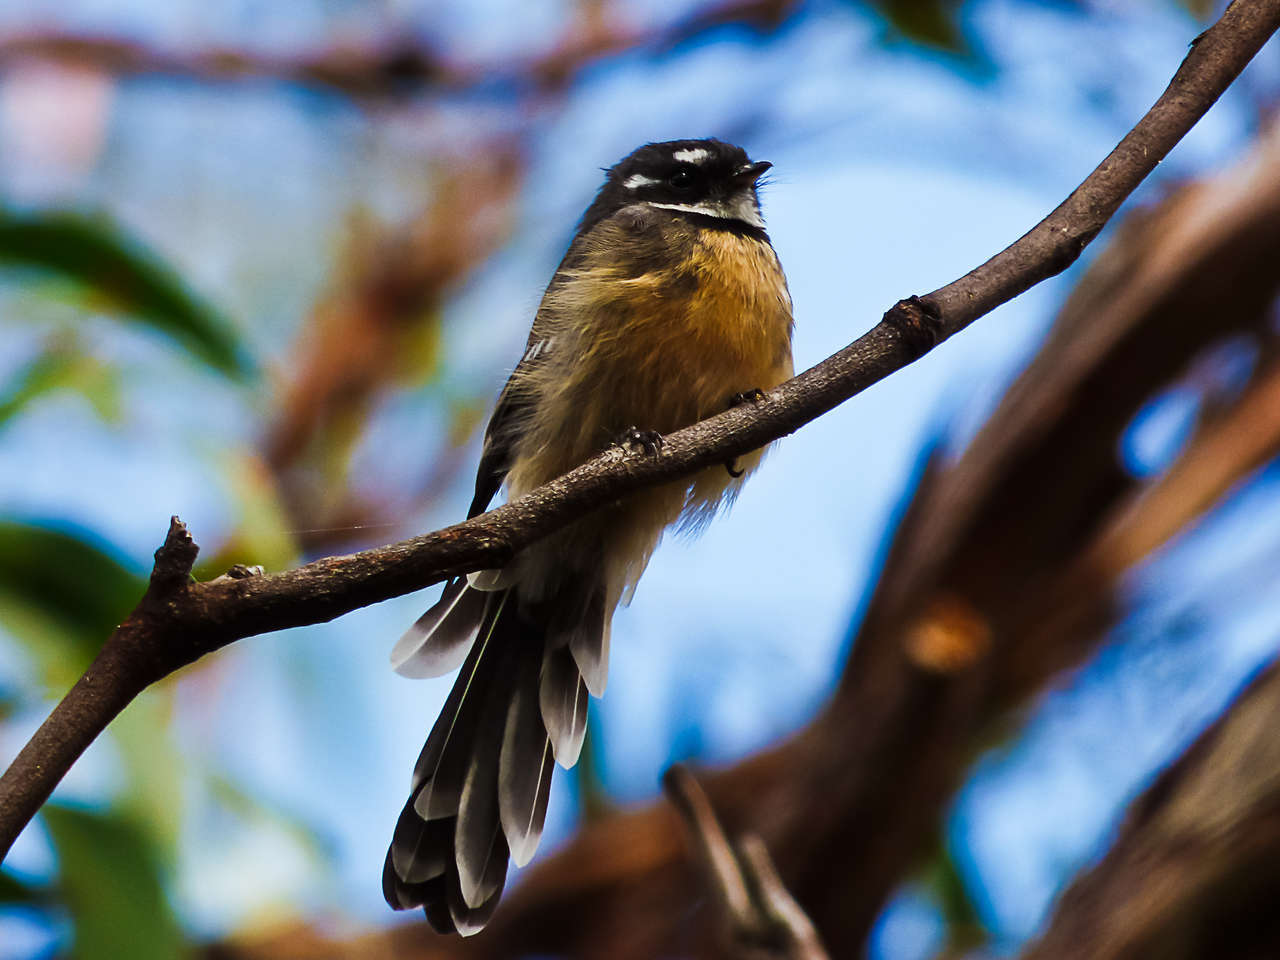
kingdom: Animalia
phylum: Chordata
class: Aves
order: Passeriformes
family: Rhipiduridae
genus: Rhipidura
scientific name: Rhipidura albiscapa
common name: Grey fantail
